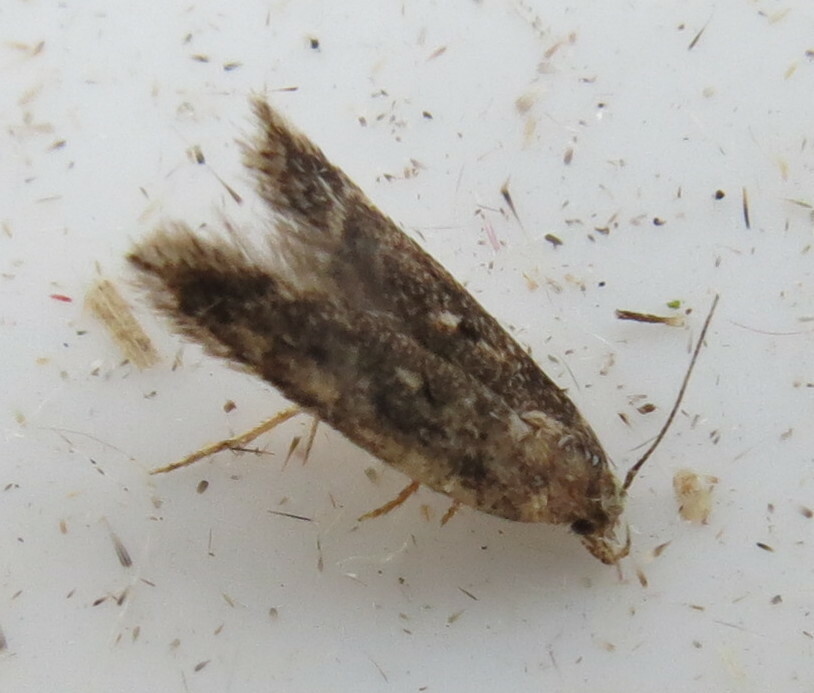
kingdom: Animalia
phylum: Arthropoda
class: Insecta
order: Lepidoptera
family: Gelechiidae
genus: Bryotropha
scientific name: Bryotropha affinis
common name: Dark groundling
